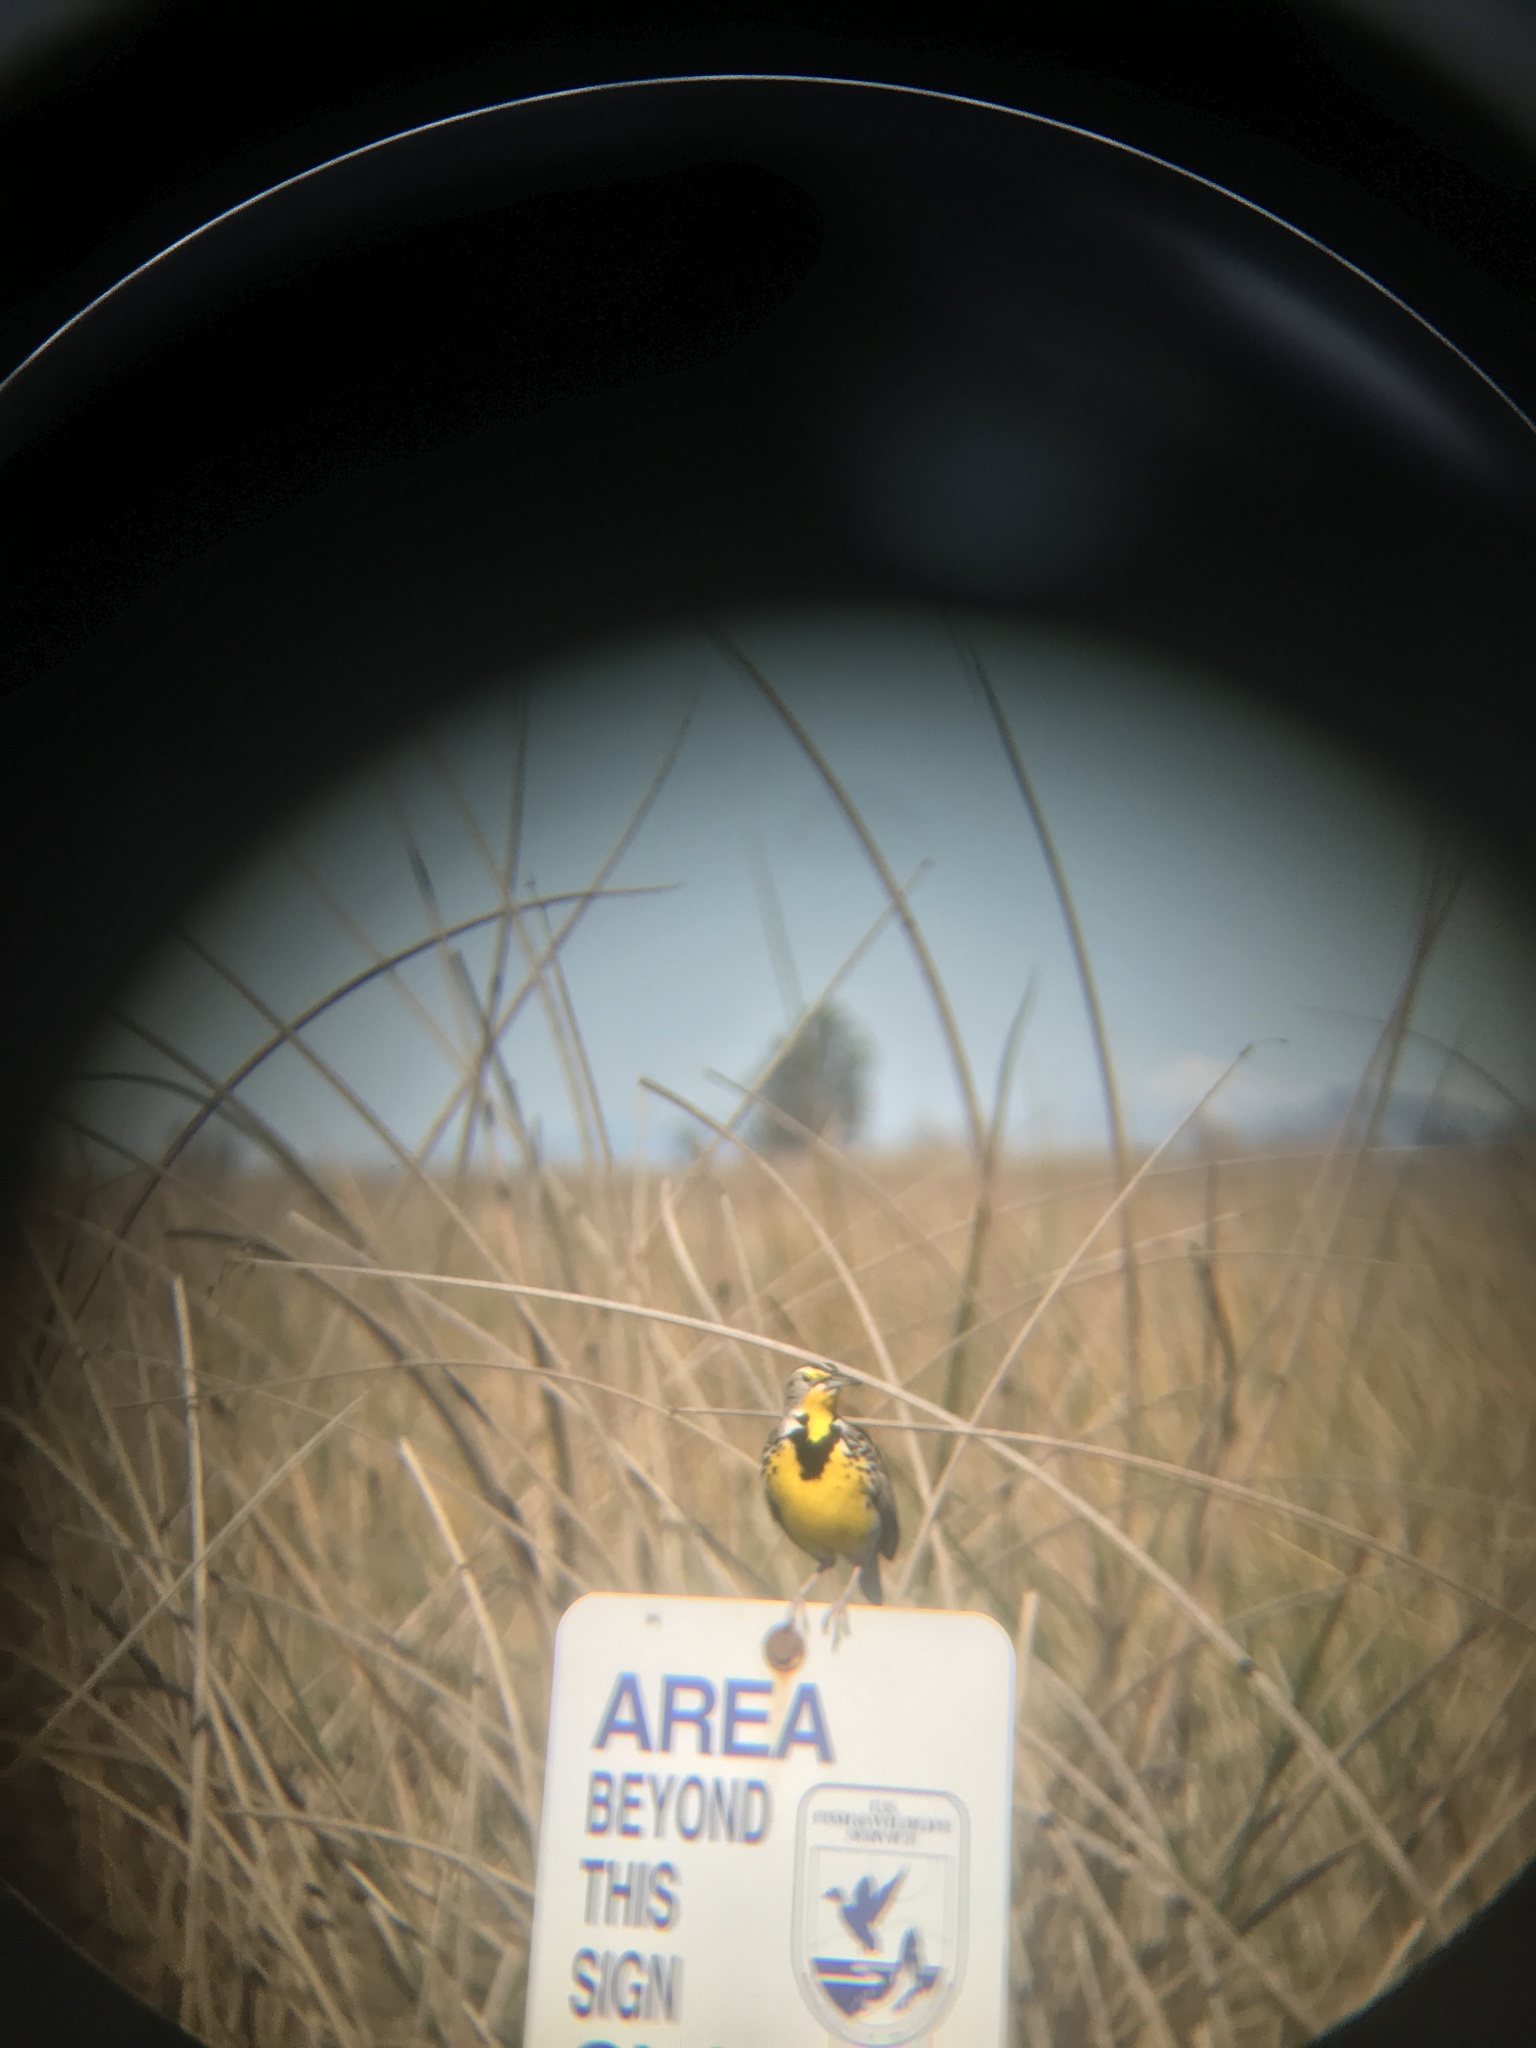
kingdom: Animalia
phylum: Chordata
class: Aves
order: Passeriformes
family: Icteridae
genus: Sturnella
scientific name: Sturnella neglecta
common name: Western meadowlark
